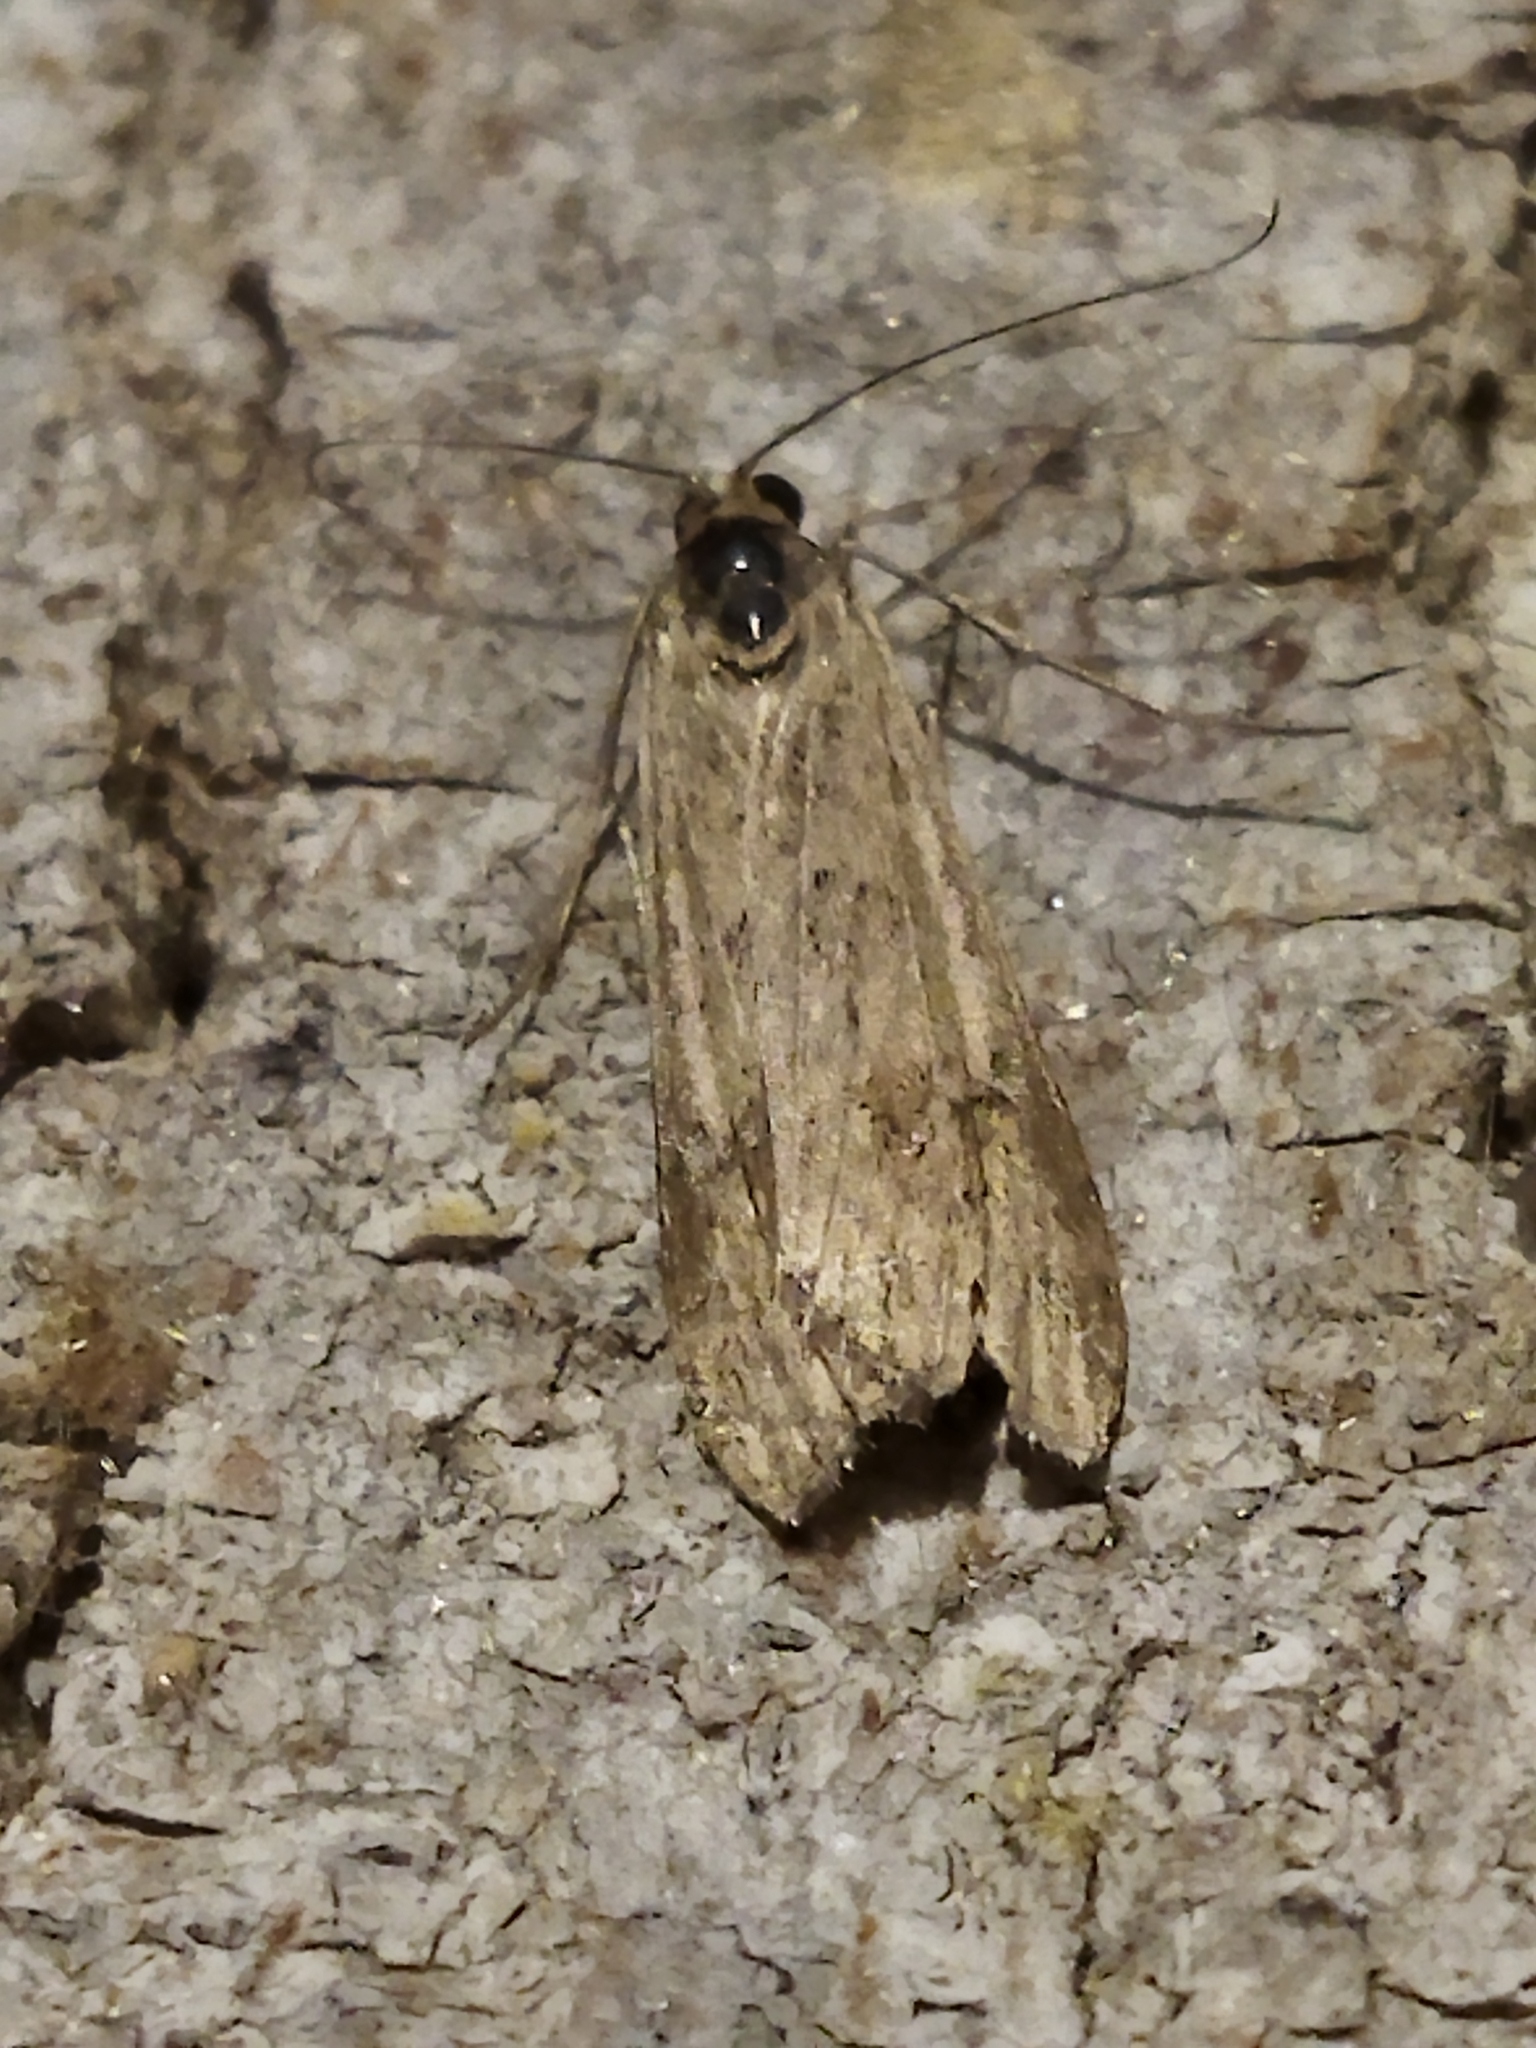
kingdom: Animalia
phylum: Arthropoda
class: Insecta
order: Lepidoptera
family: Crambidae
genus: Nomophila
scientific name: Nomophila noctuella
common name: Rush veneer
